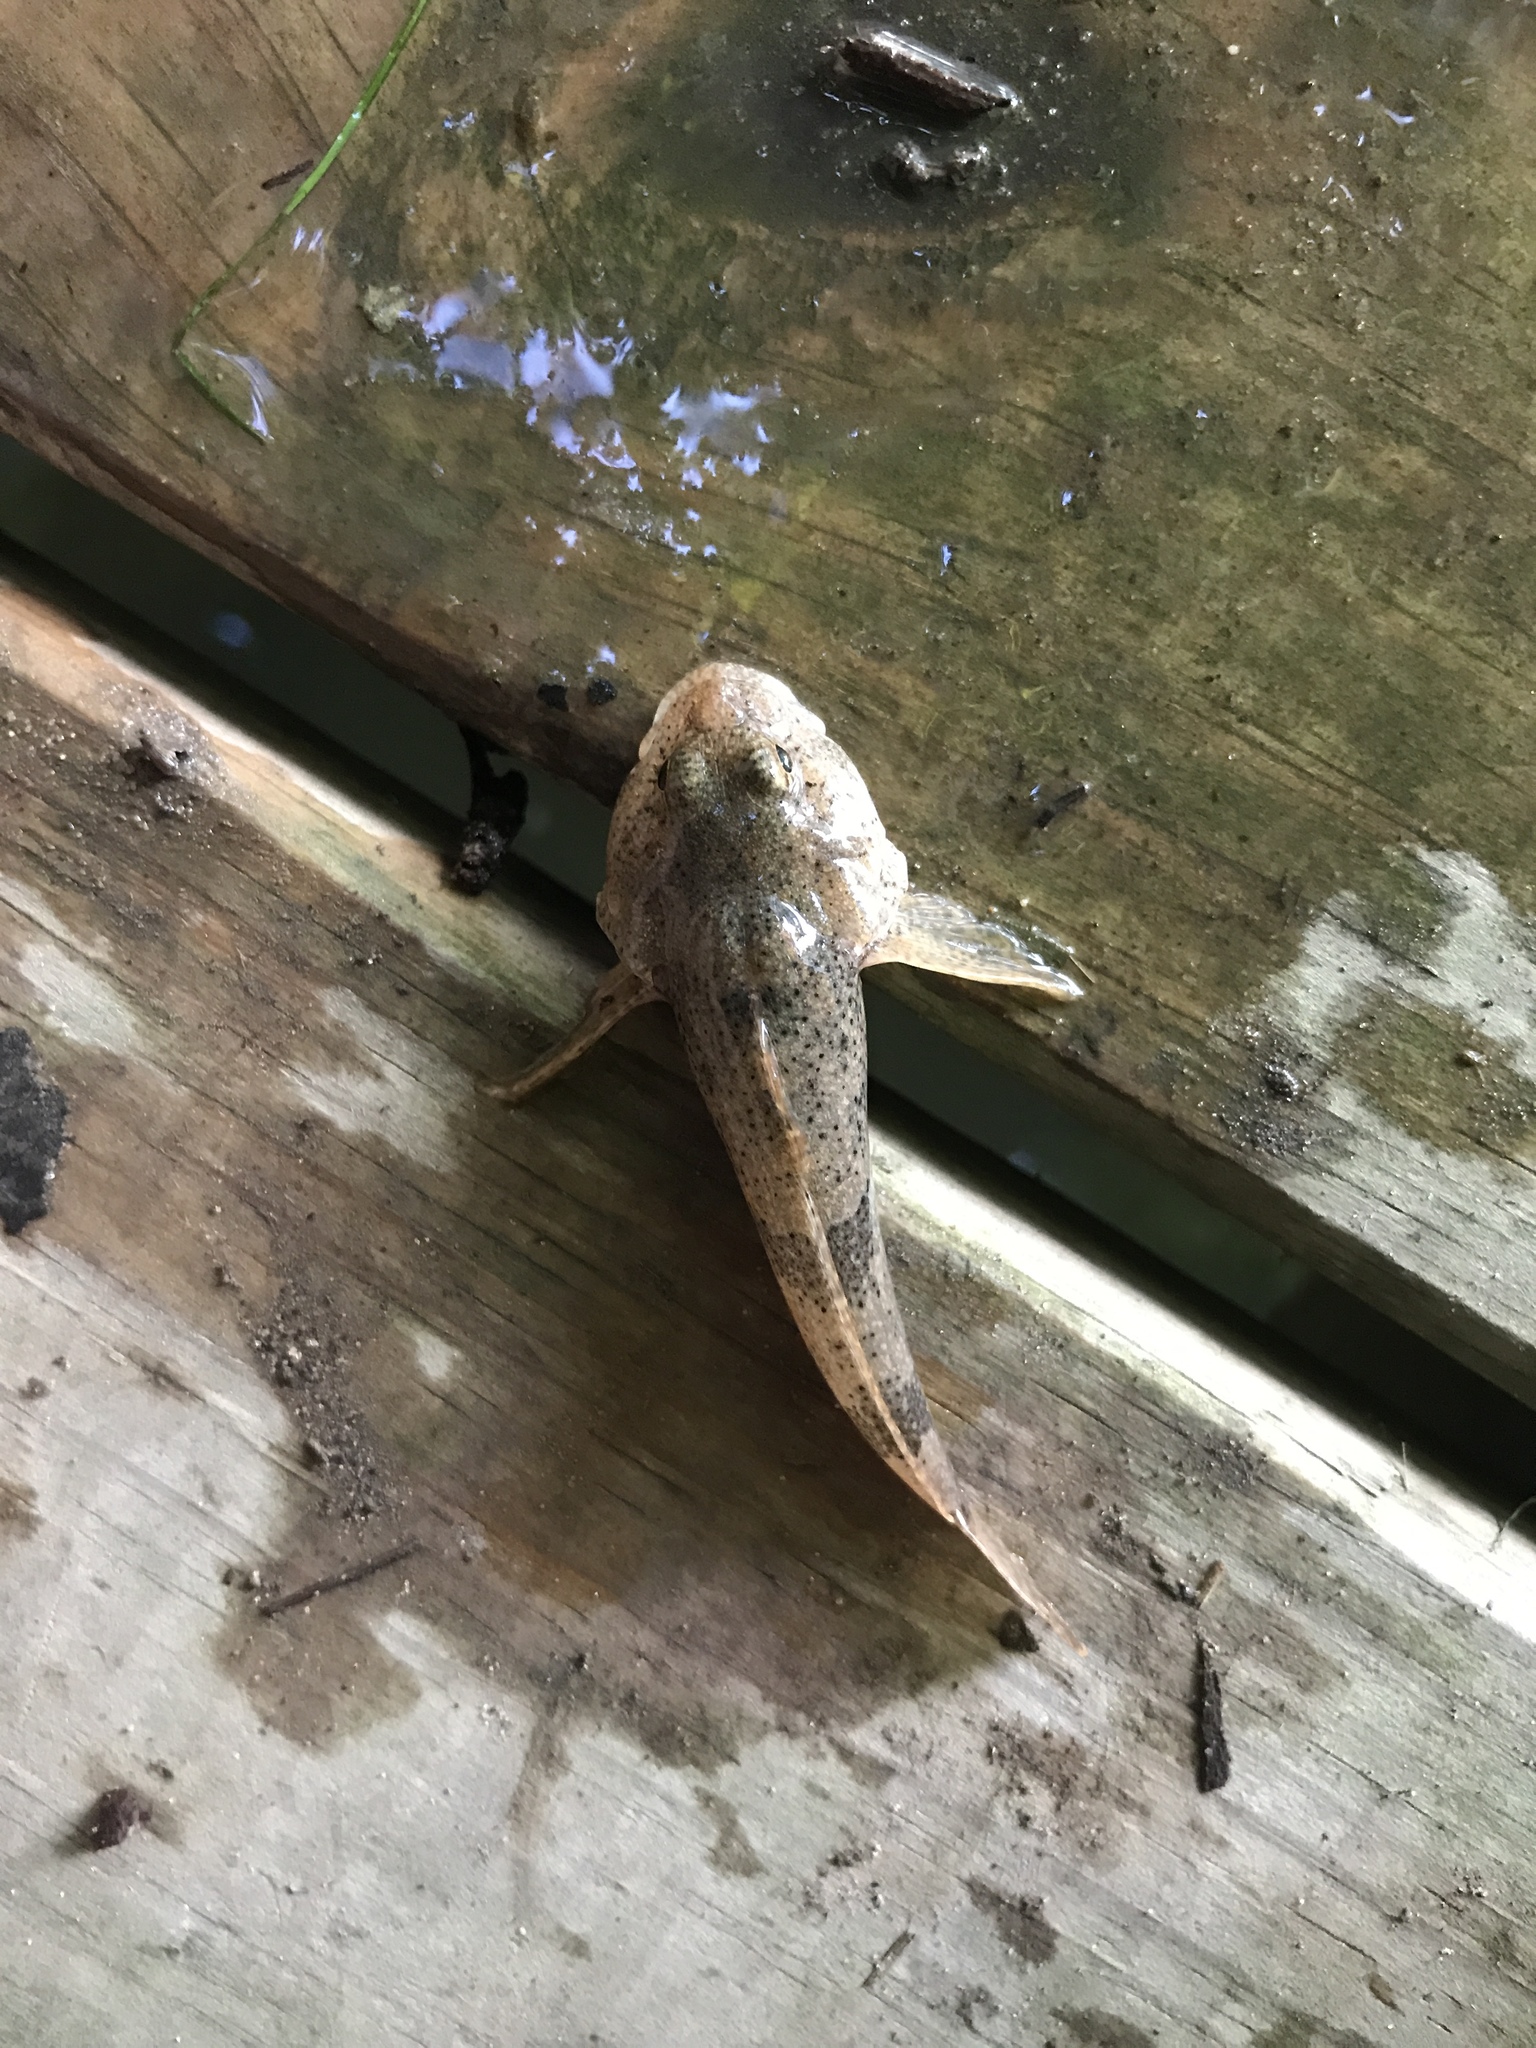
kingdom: Animalia
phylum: Chordata
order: Scorpaeniformes
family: Cottidae
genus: Cottus
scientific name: Cottus bairdii
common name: Mottled sculpin
